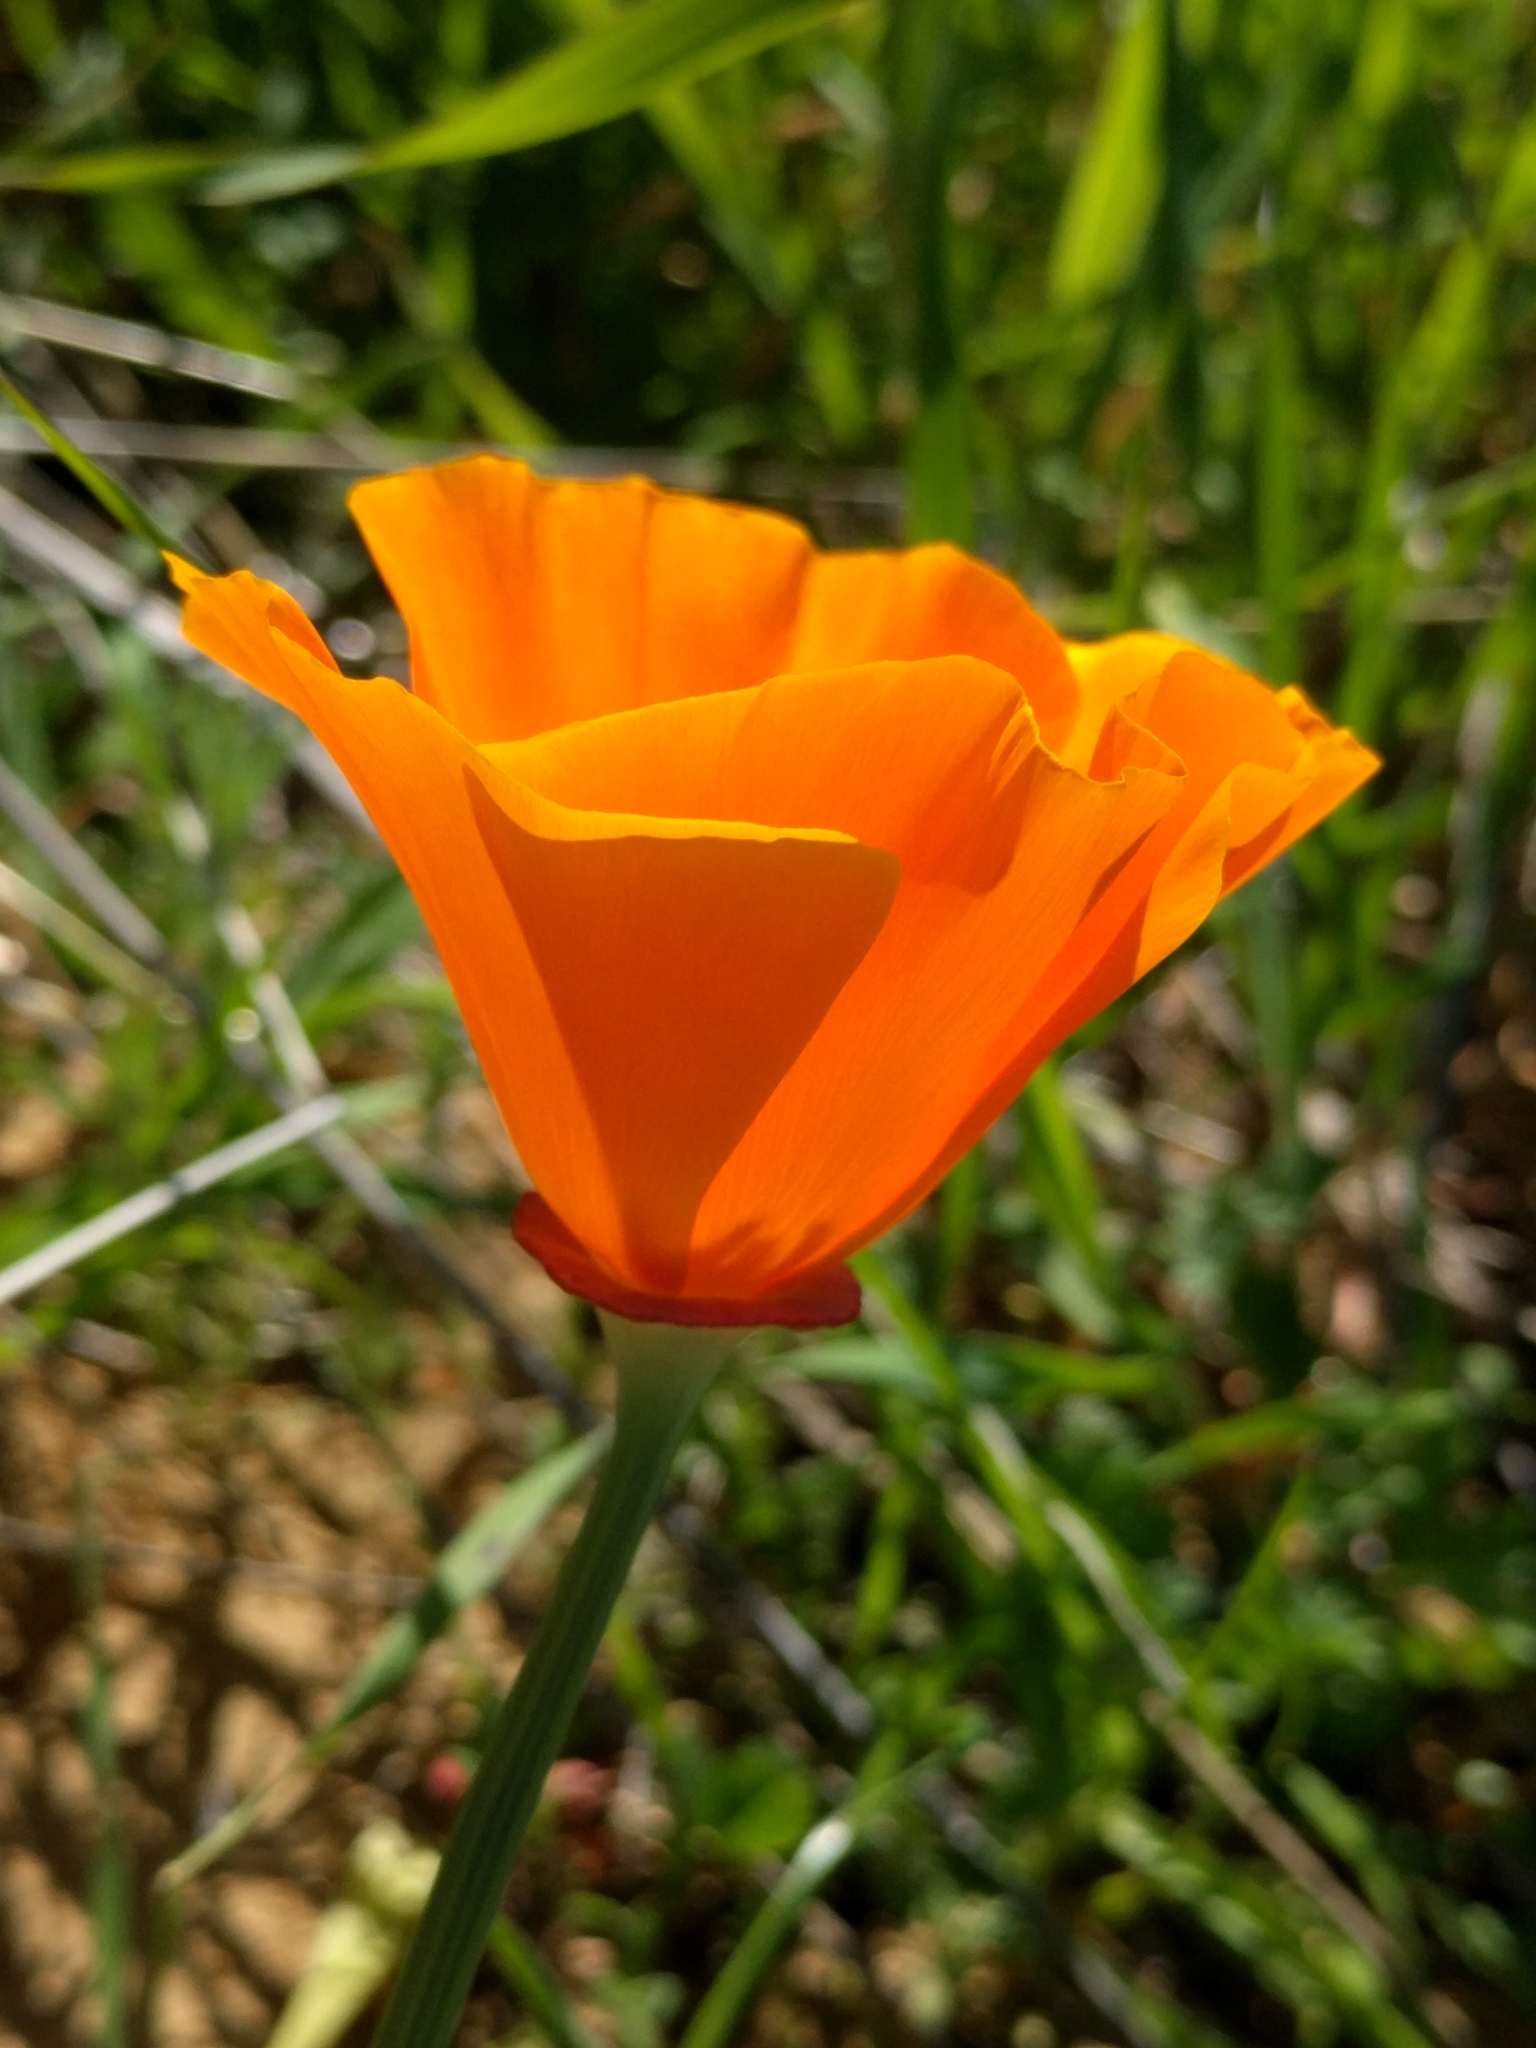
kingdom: Plantae
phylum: Tracheophyta
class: Magnoliopsida
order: Ranunculales
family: Papaveraceae
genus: Eschscholzia
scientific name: Eschscholzia californica
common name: California poppy
